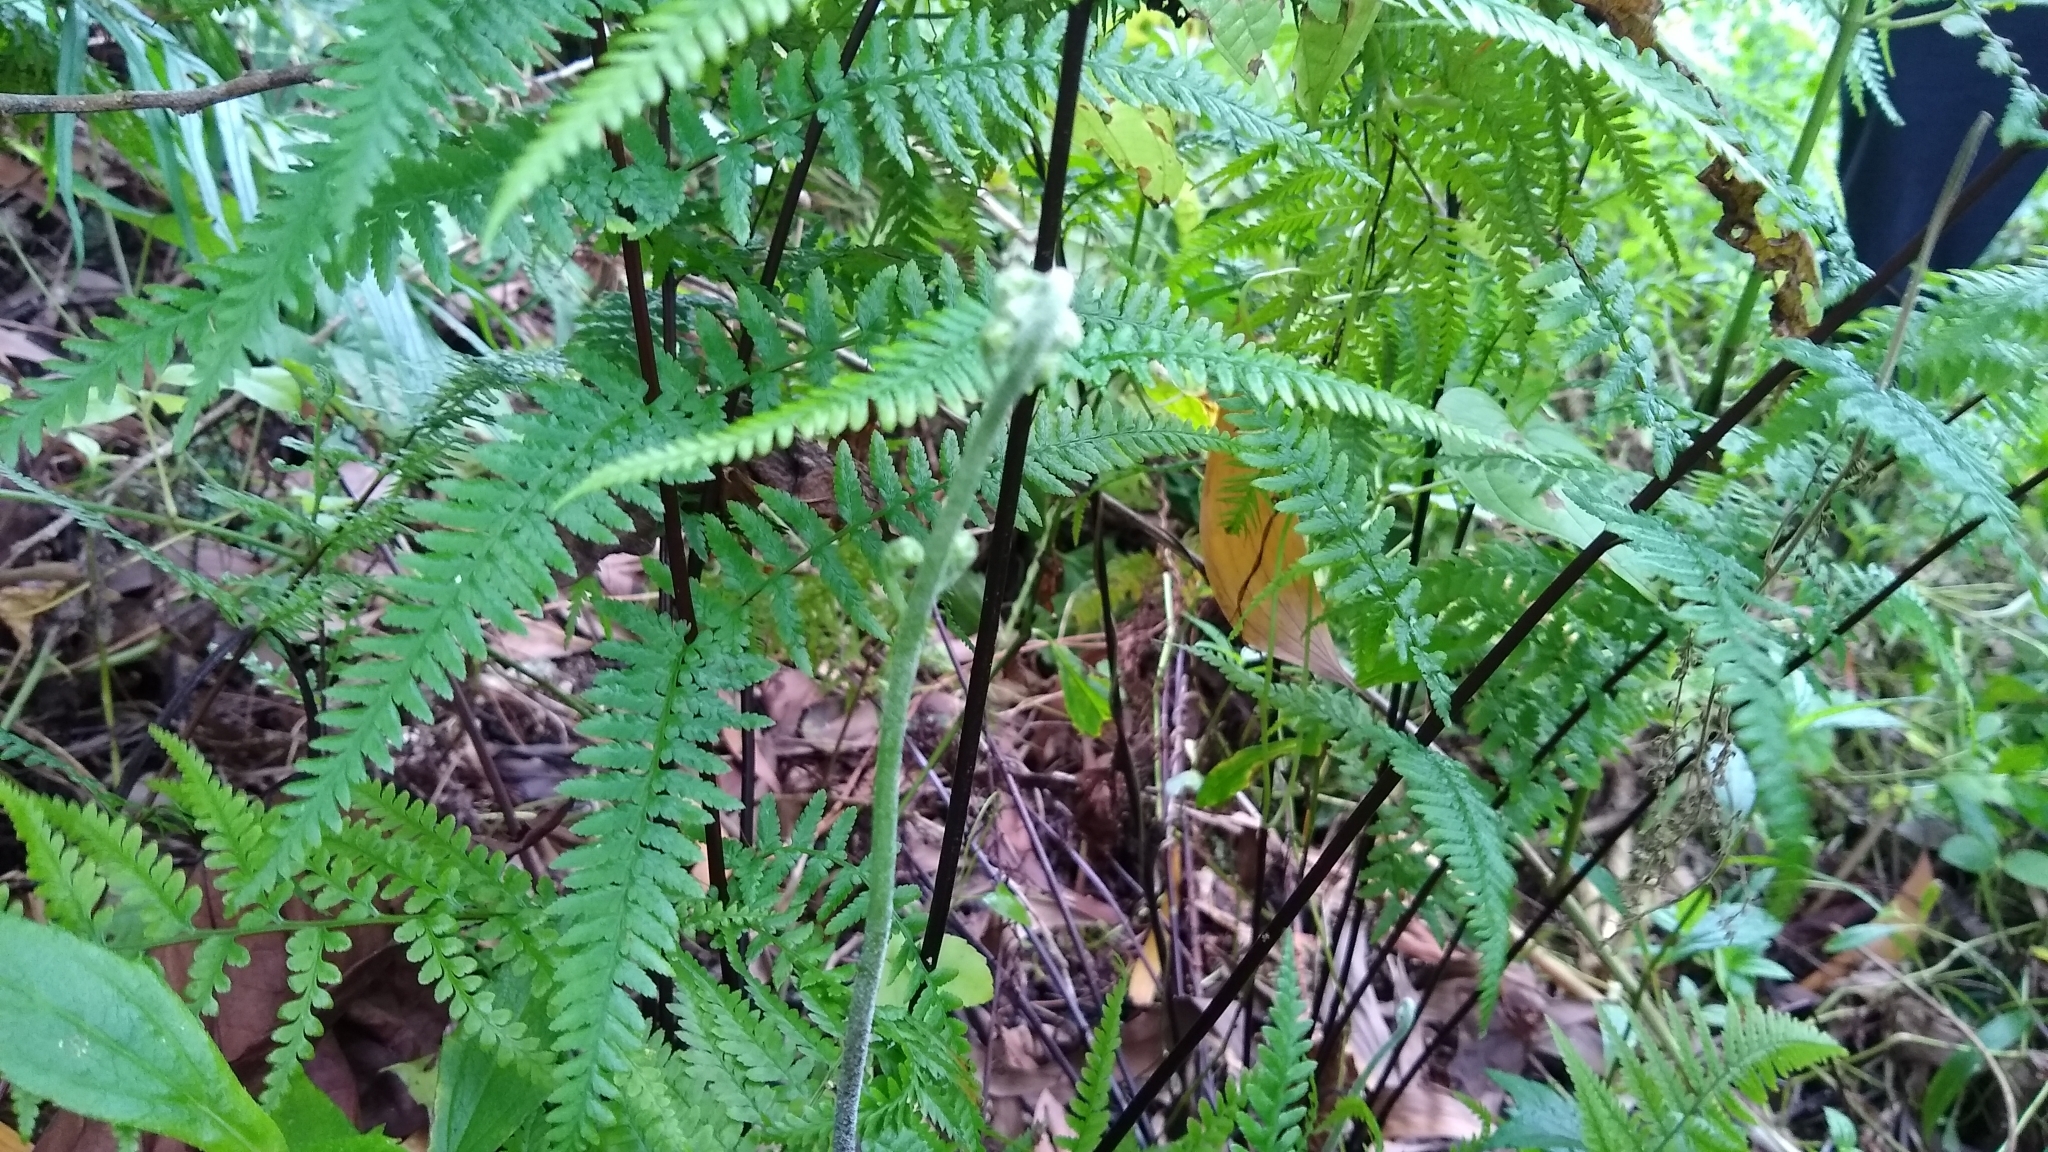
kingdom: Plantae
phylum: Tracheophyta
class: Polypodiopsida
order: Polypodiales
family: Pteridaceae
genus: Pityrogramma
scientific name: Pityrogramma calomelanos
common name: Dixie silverback fern
